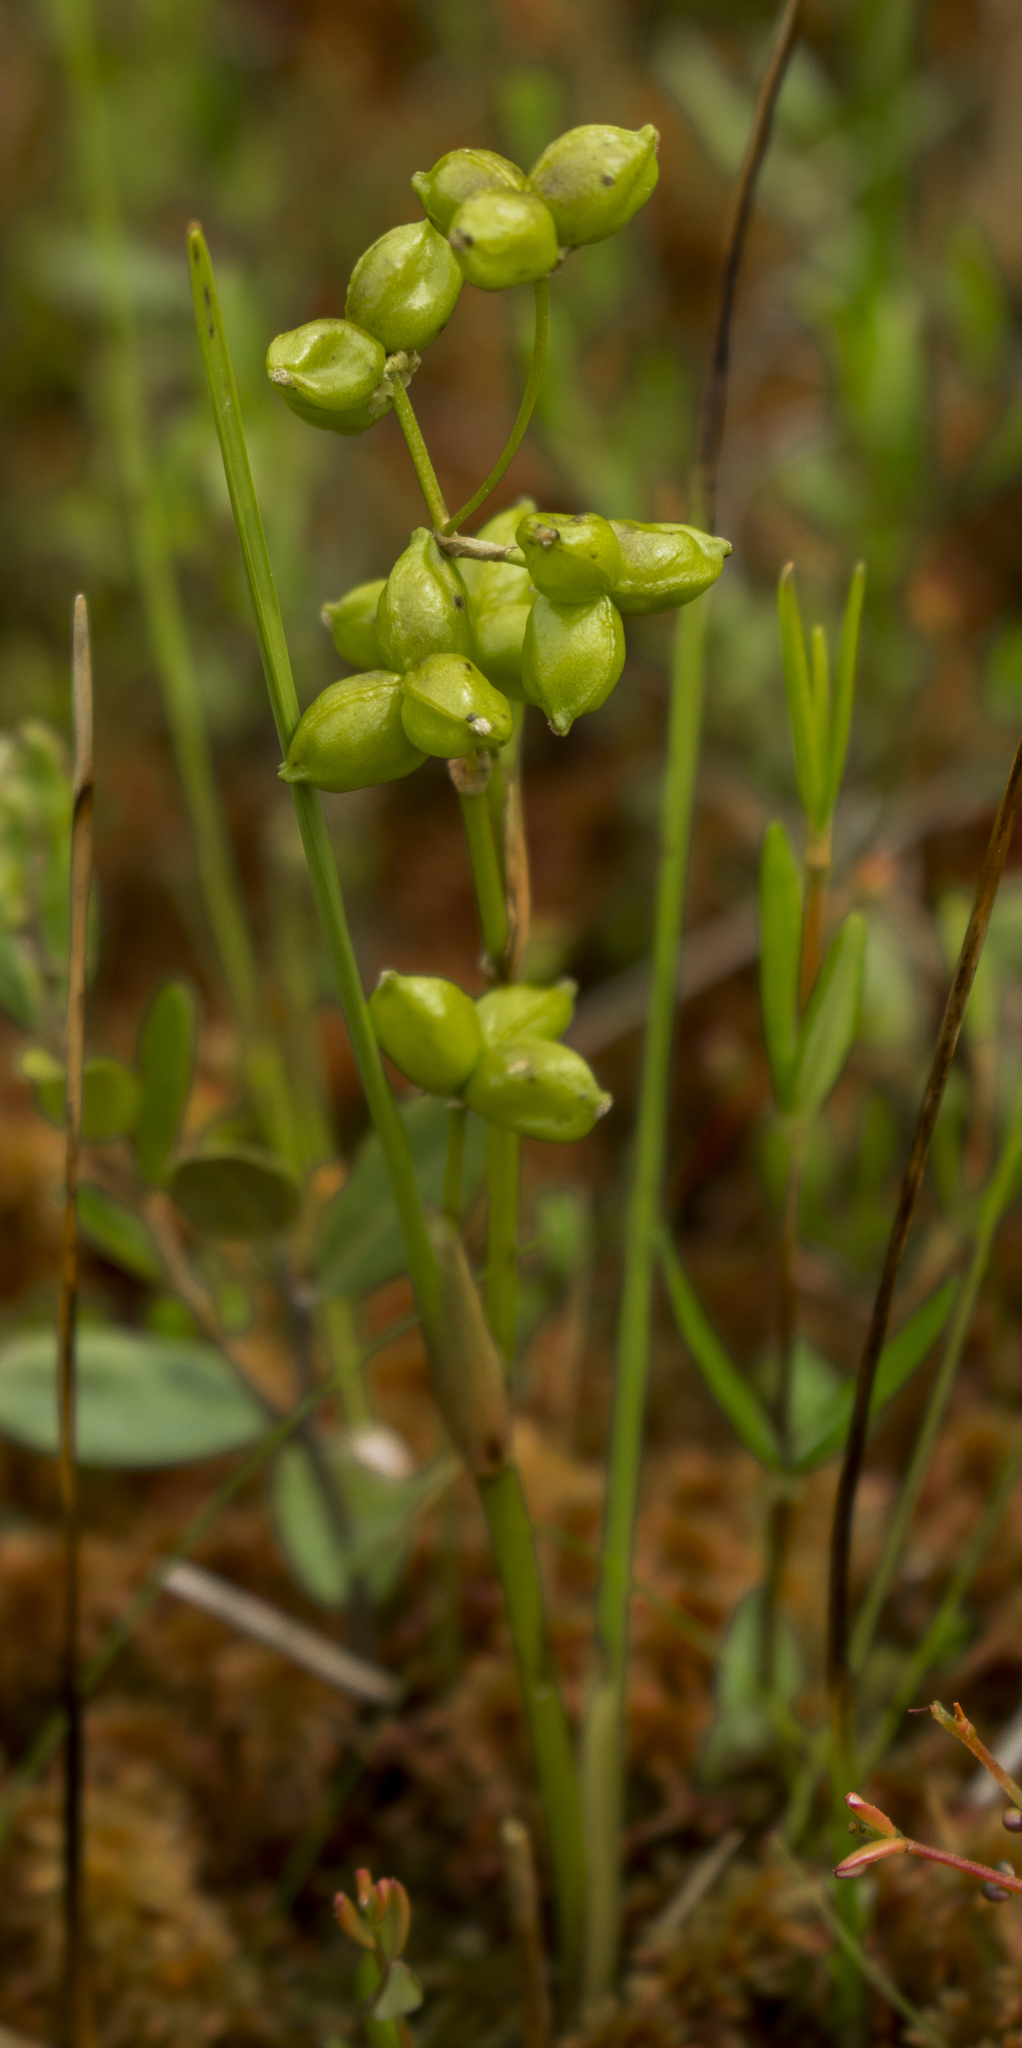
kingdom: Plantae
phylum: Tracheophyta
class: Liliopsida
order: Alismatales
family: Scheuchzeriaceae
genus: Scheuchzeria
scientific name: Scheuchzeria palustris
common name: Rannoch-rush
